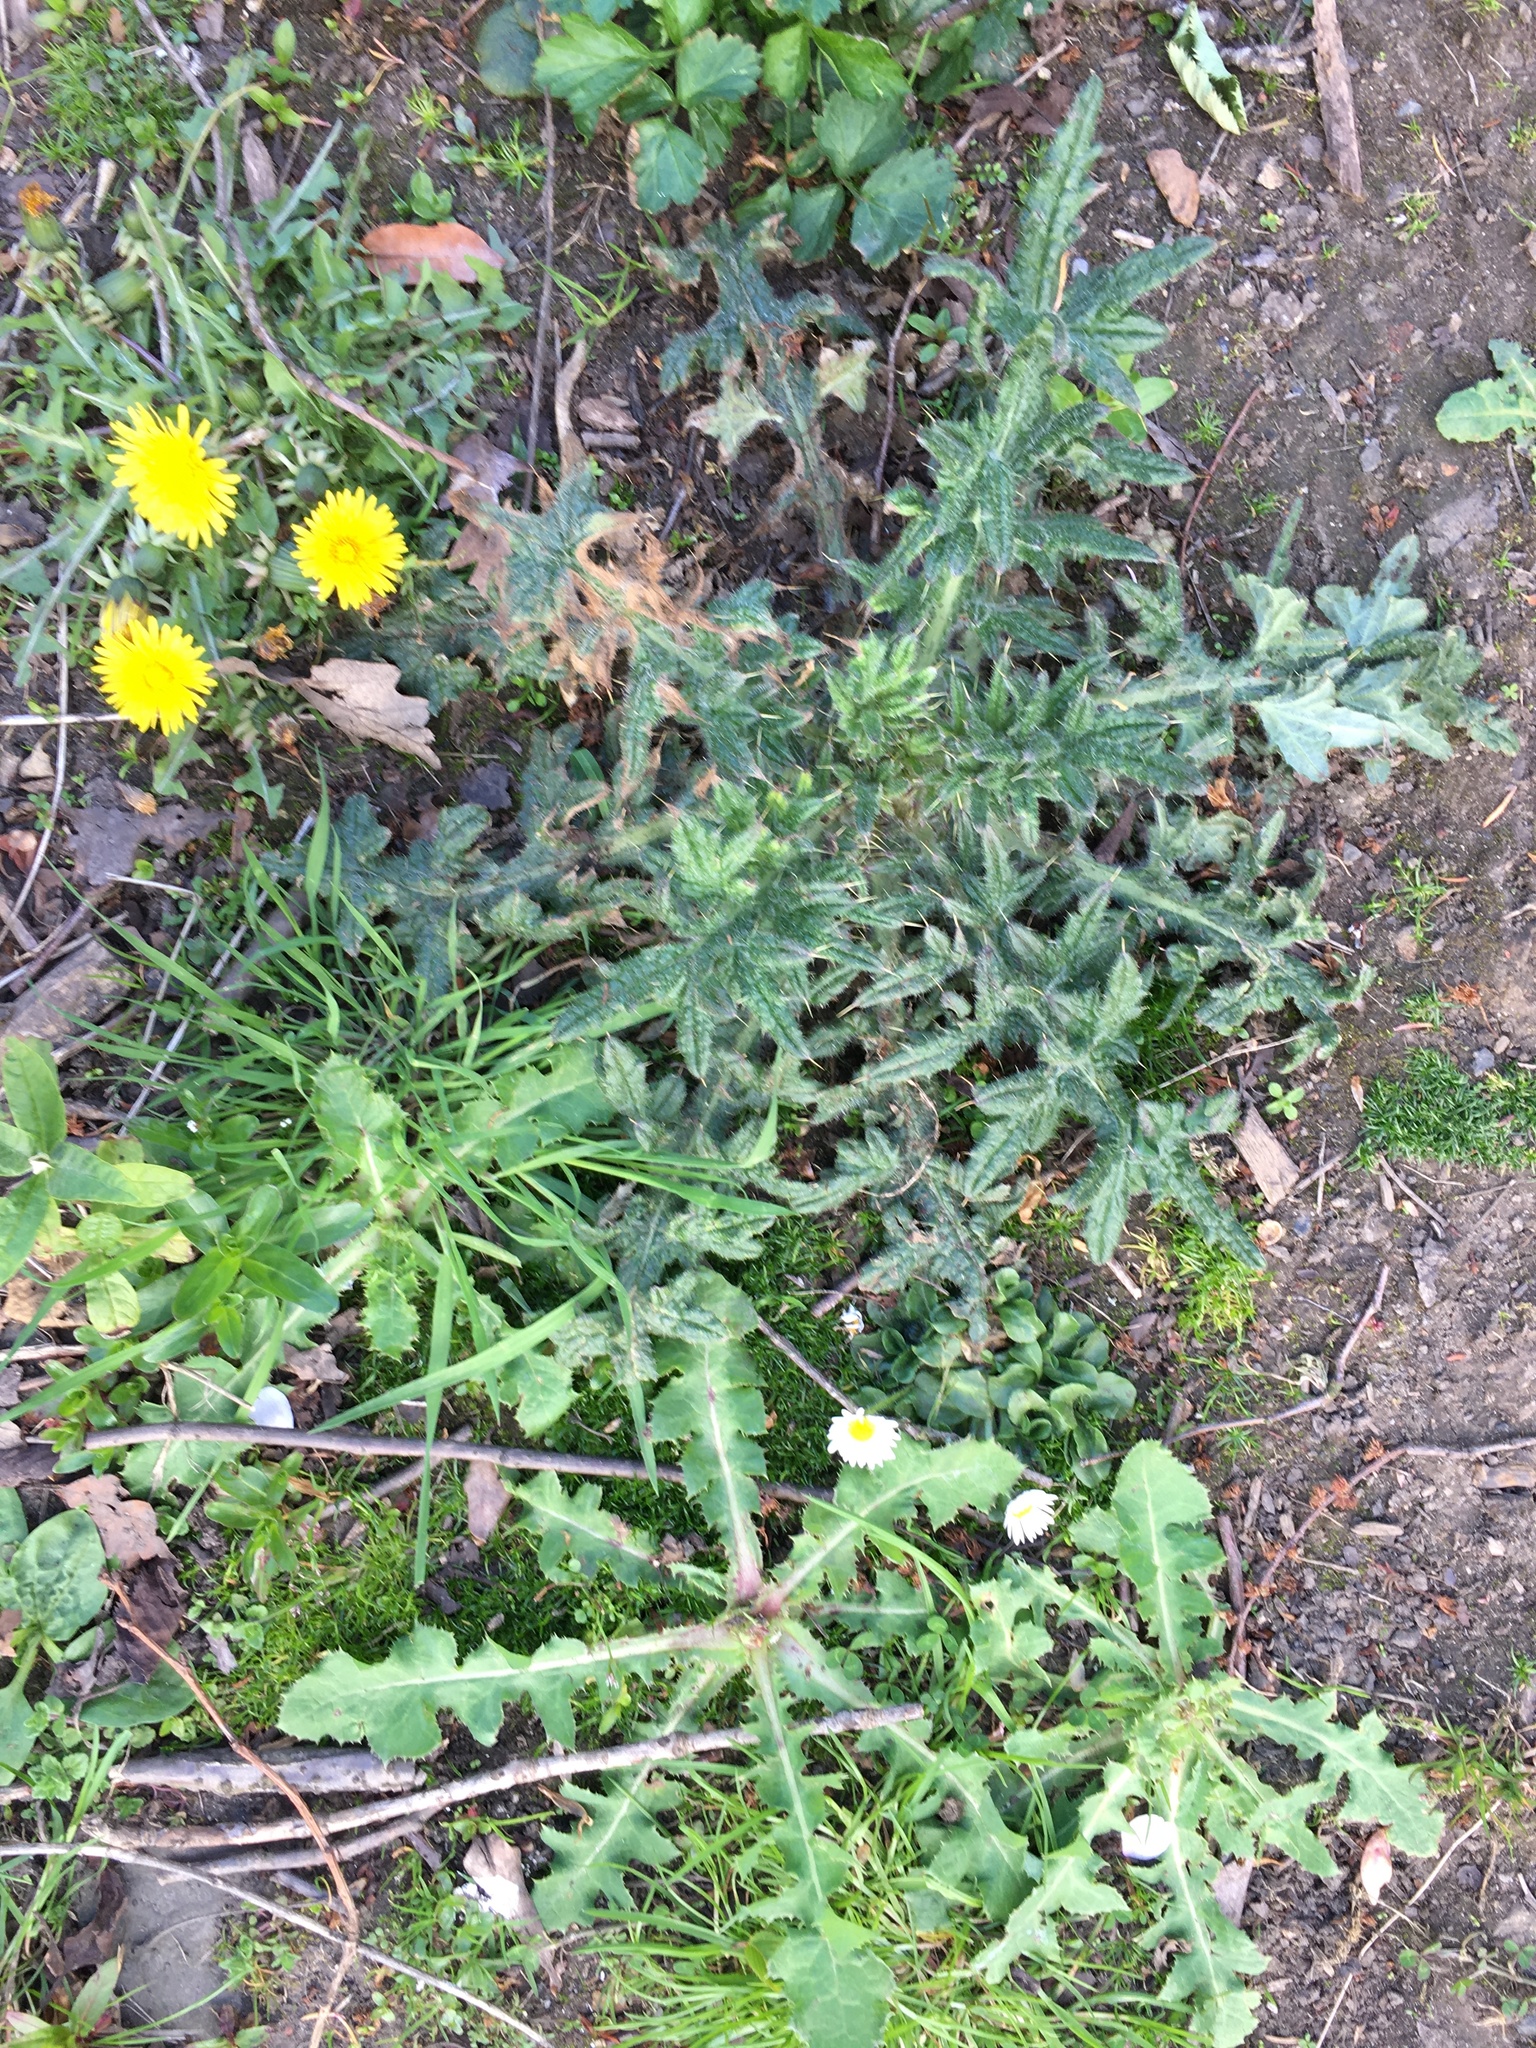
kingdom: Plantae
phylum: Tracheophyta
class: Magnoliopsida
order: Asterales
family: Asteraceae
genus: Bellis
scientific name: Bellis perennis
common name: Lawndaisy
